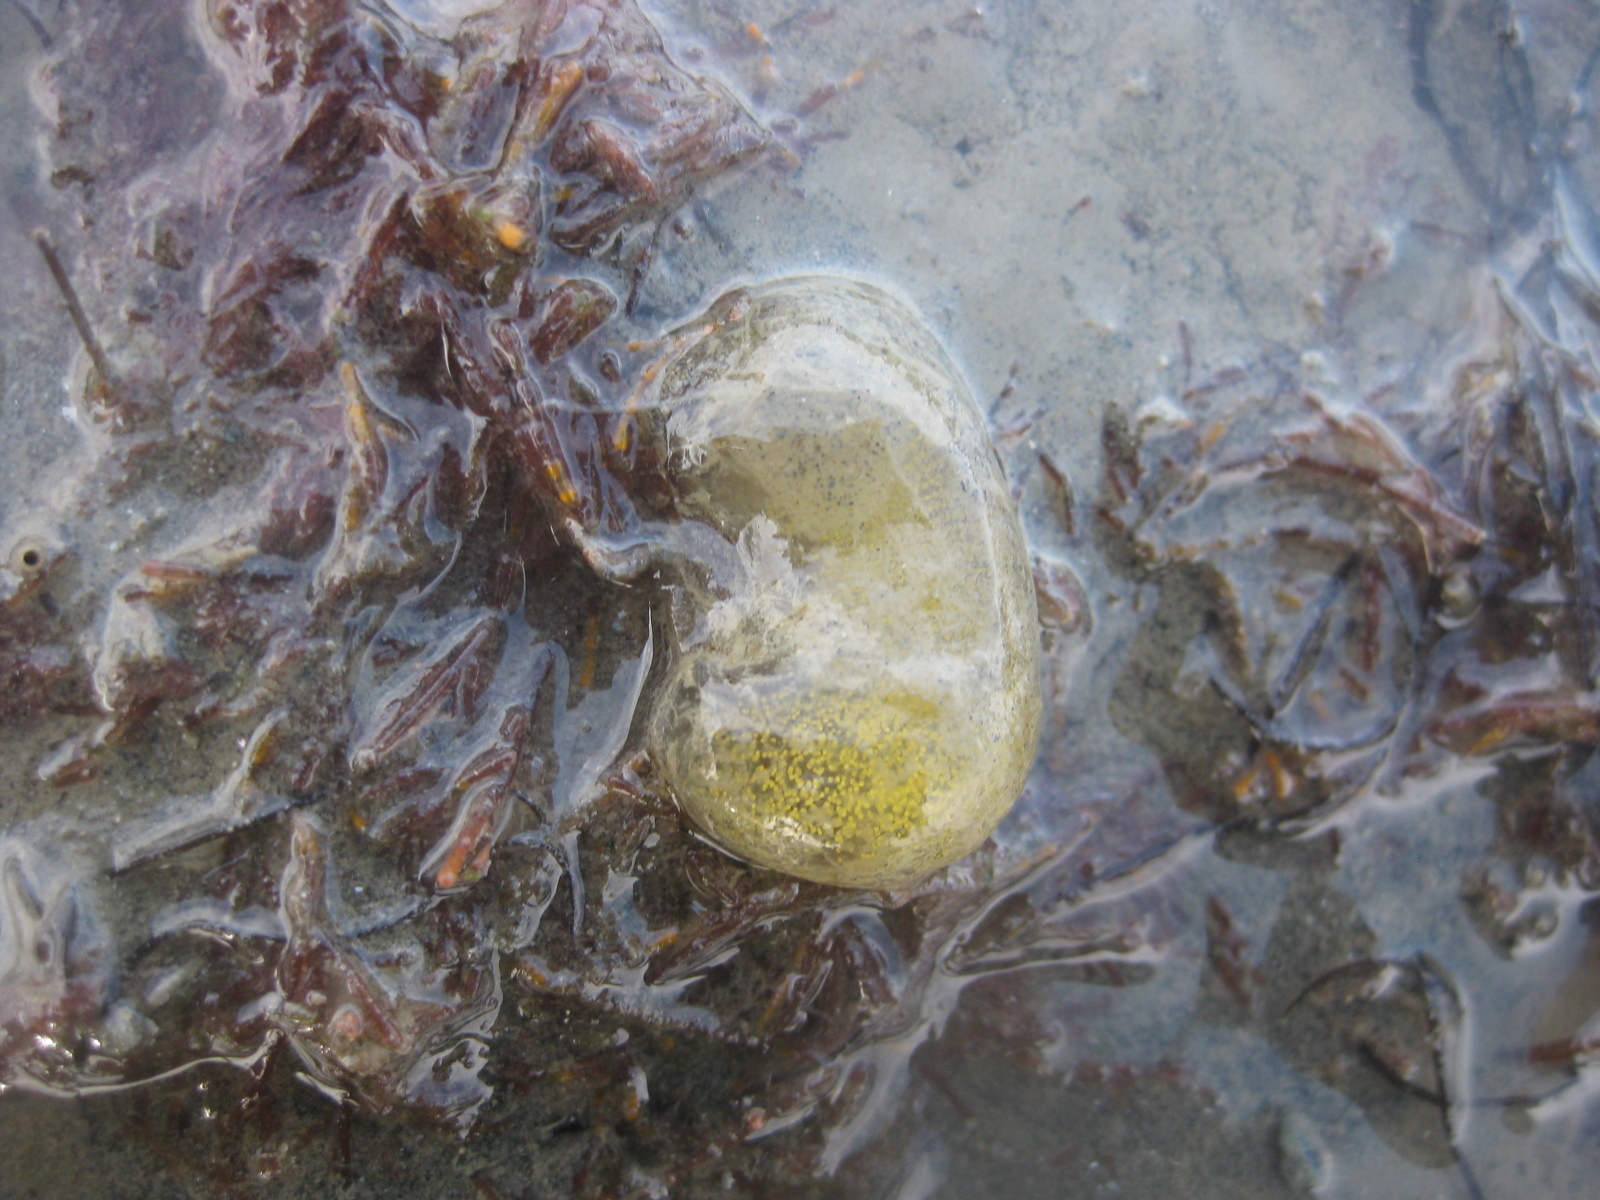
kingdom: Animalia
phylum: Mollusca
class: Gastropoda
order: Cephalaspidea
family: Haminoeidae
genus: Papawera
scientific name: Papawera zelandiae
